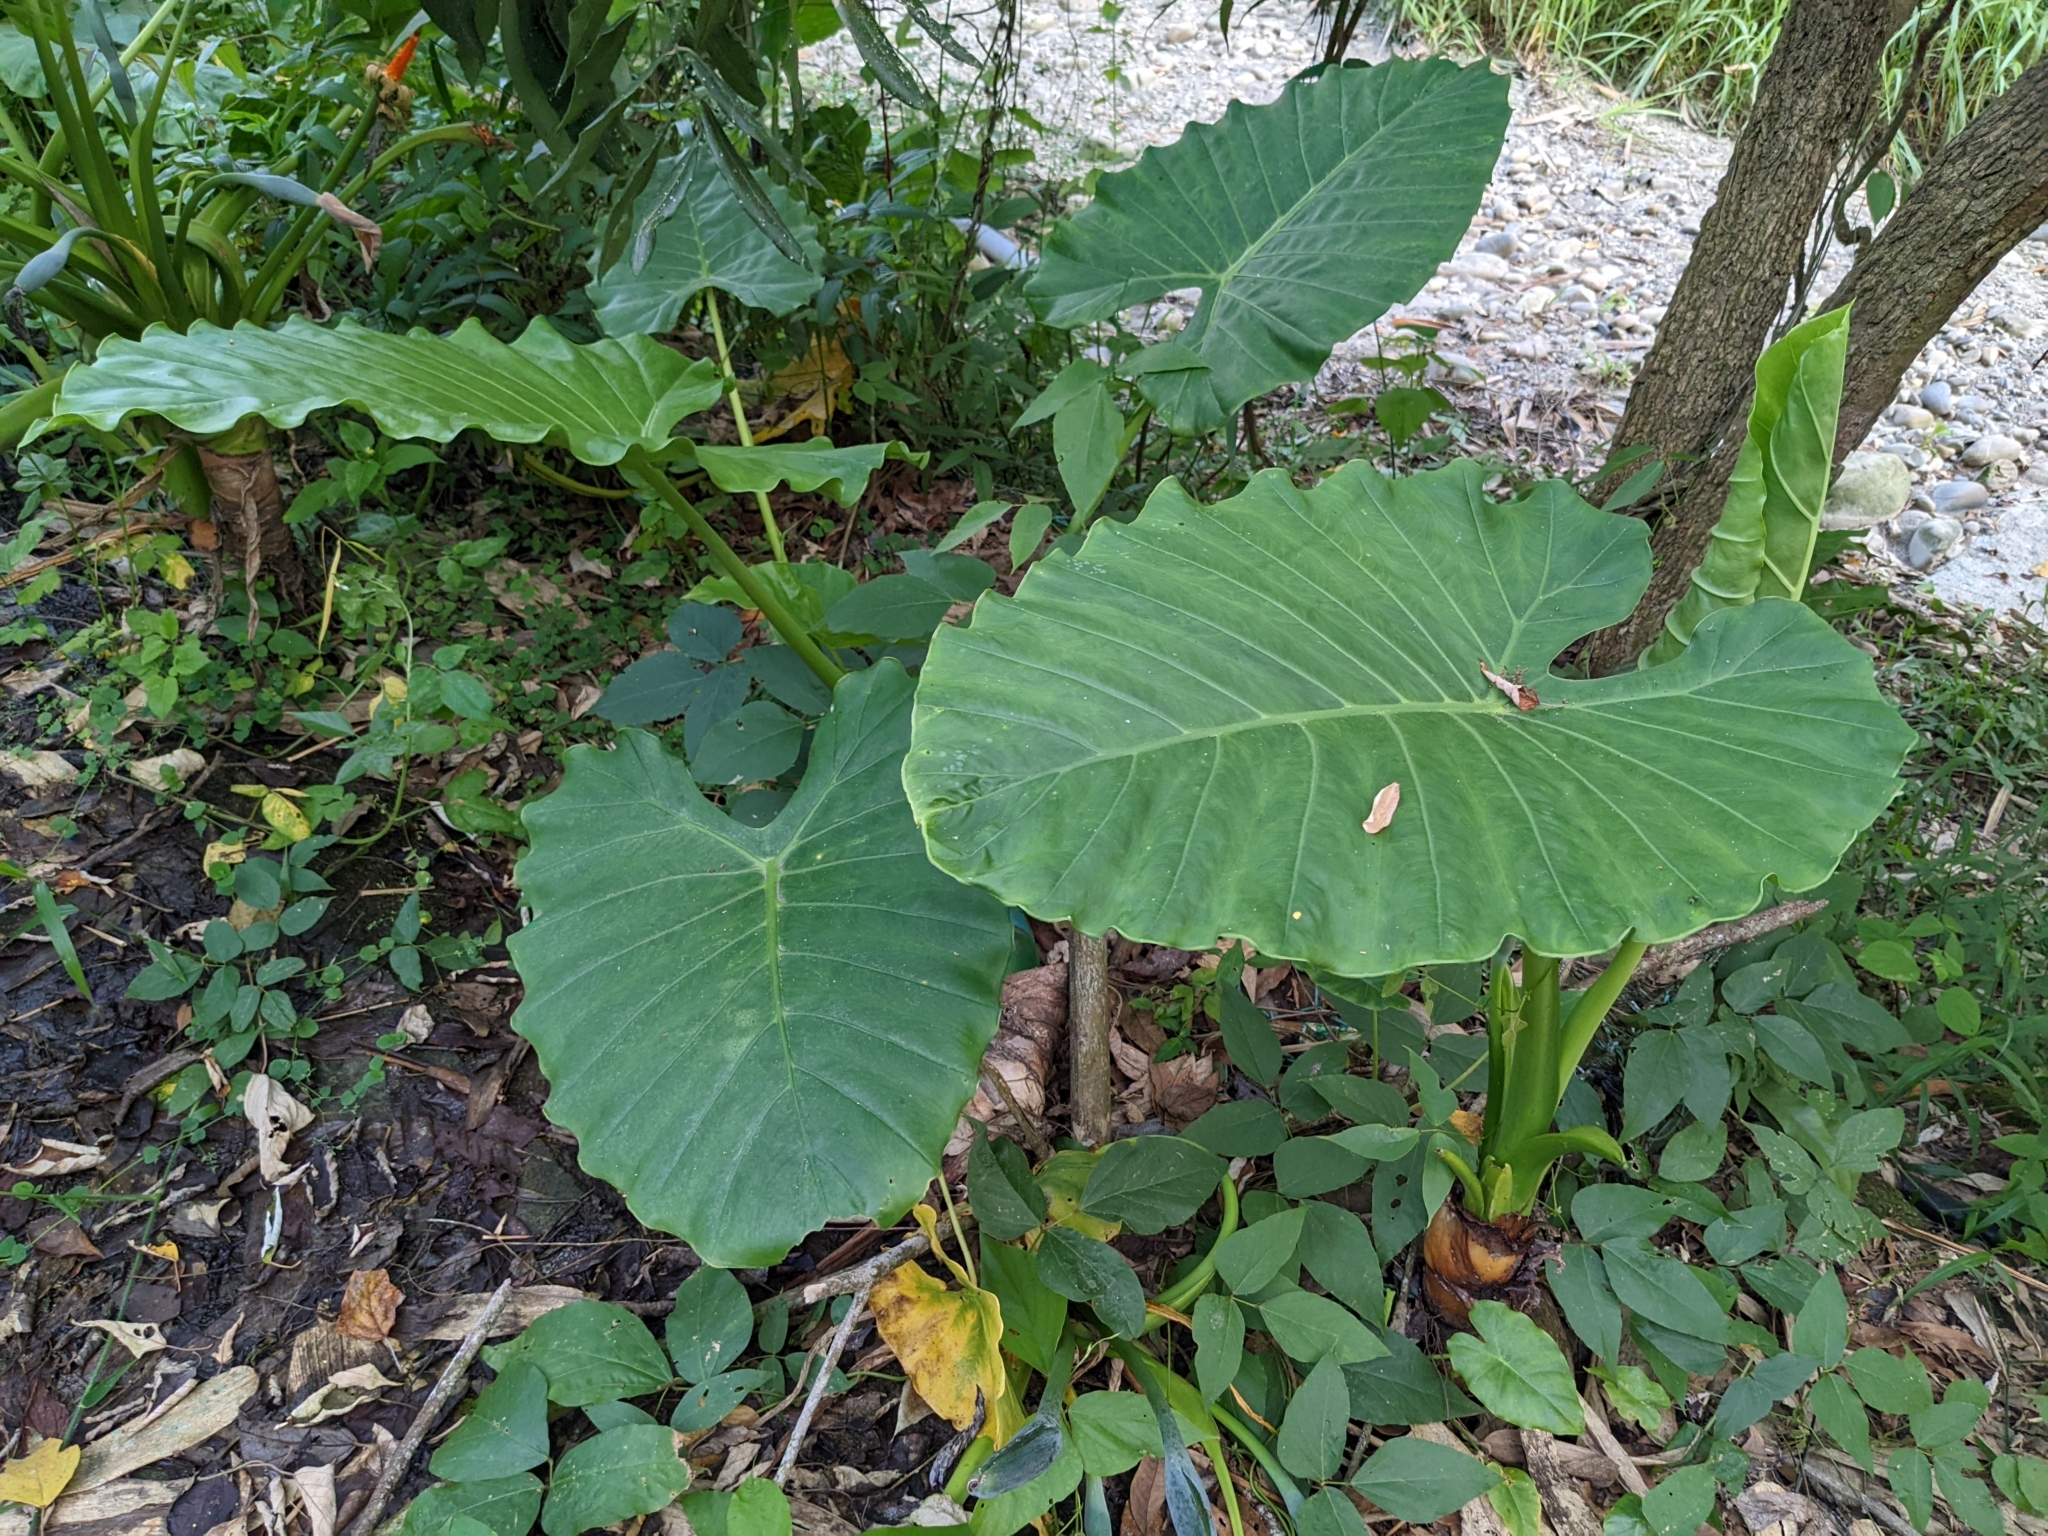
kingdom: Plantae
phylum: Tracheophyta
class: Liliopsida
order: Alismatales
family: Araceae
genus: Alocasia
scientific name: Alocasia odora
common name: Asian taro
